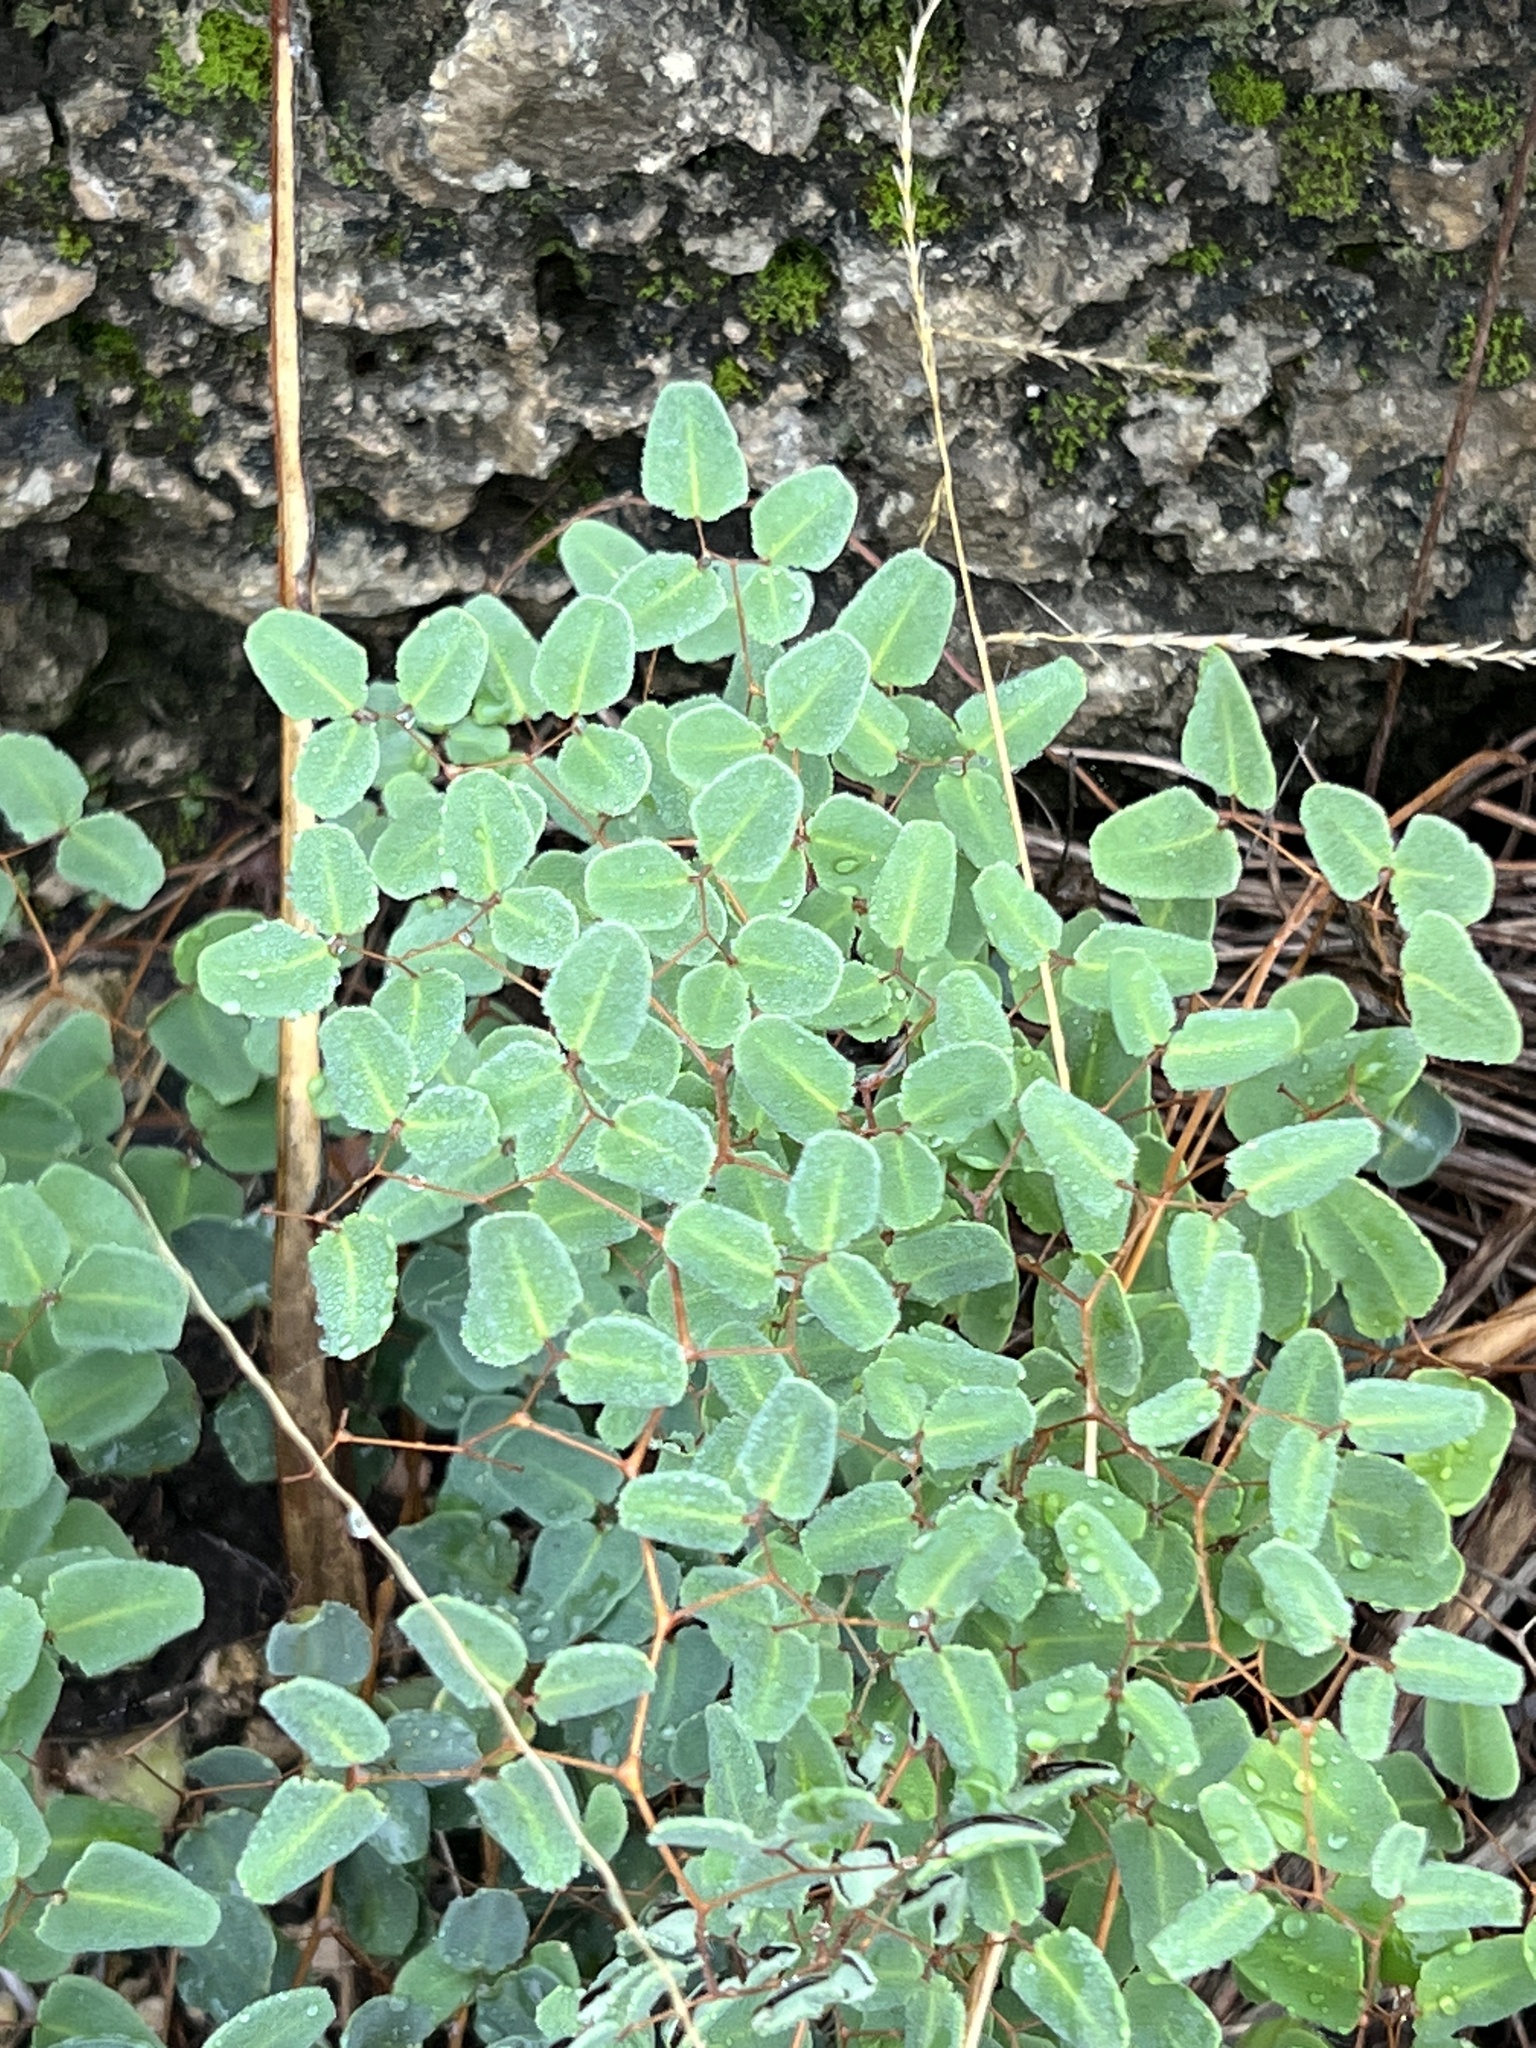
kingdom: Plantae
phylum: Tracheophyta
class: Polypodiopsida
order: Polypodiales
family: Pteridaceae
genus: Pellaea
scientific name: Pellaea ovata
